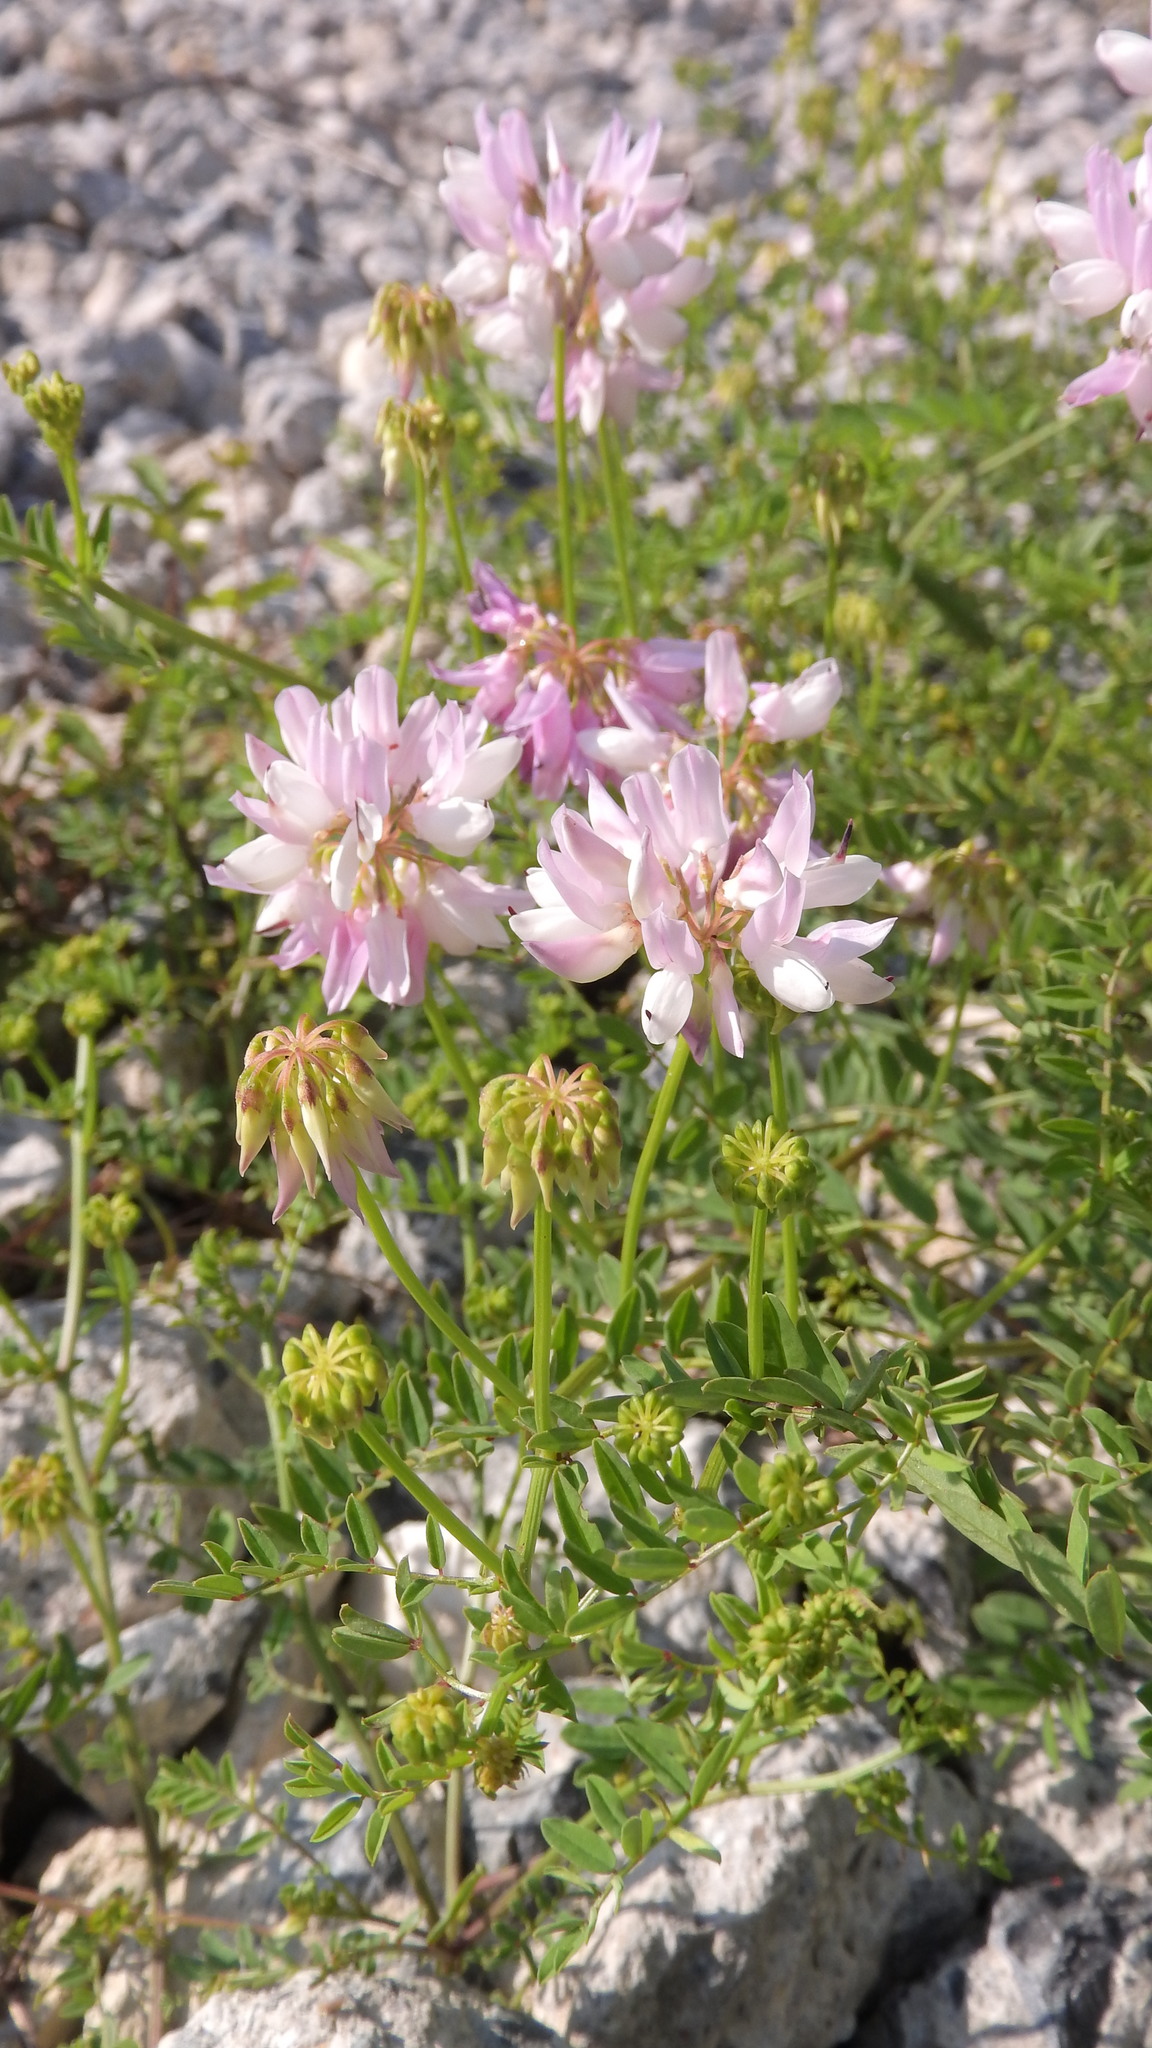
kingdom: Plantae
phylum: Tracheophyta
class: Magnoliopsida
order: Fabales
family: Fabaceae
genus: Coronilla
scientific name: Coronilla varia
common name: Crownvetch
